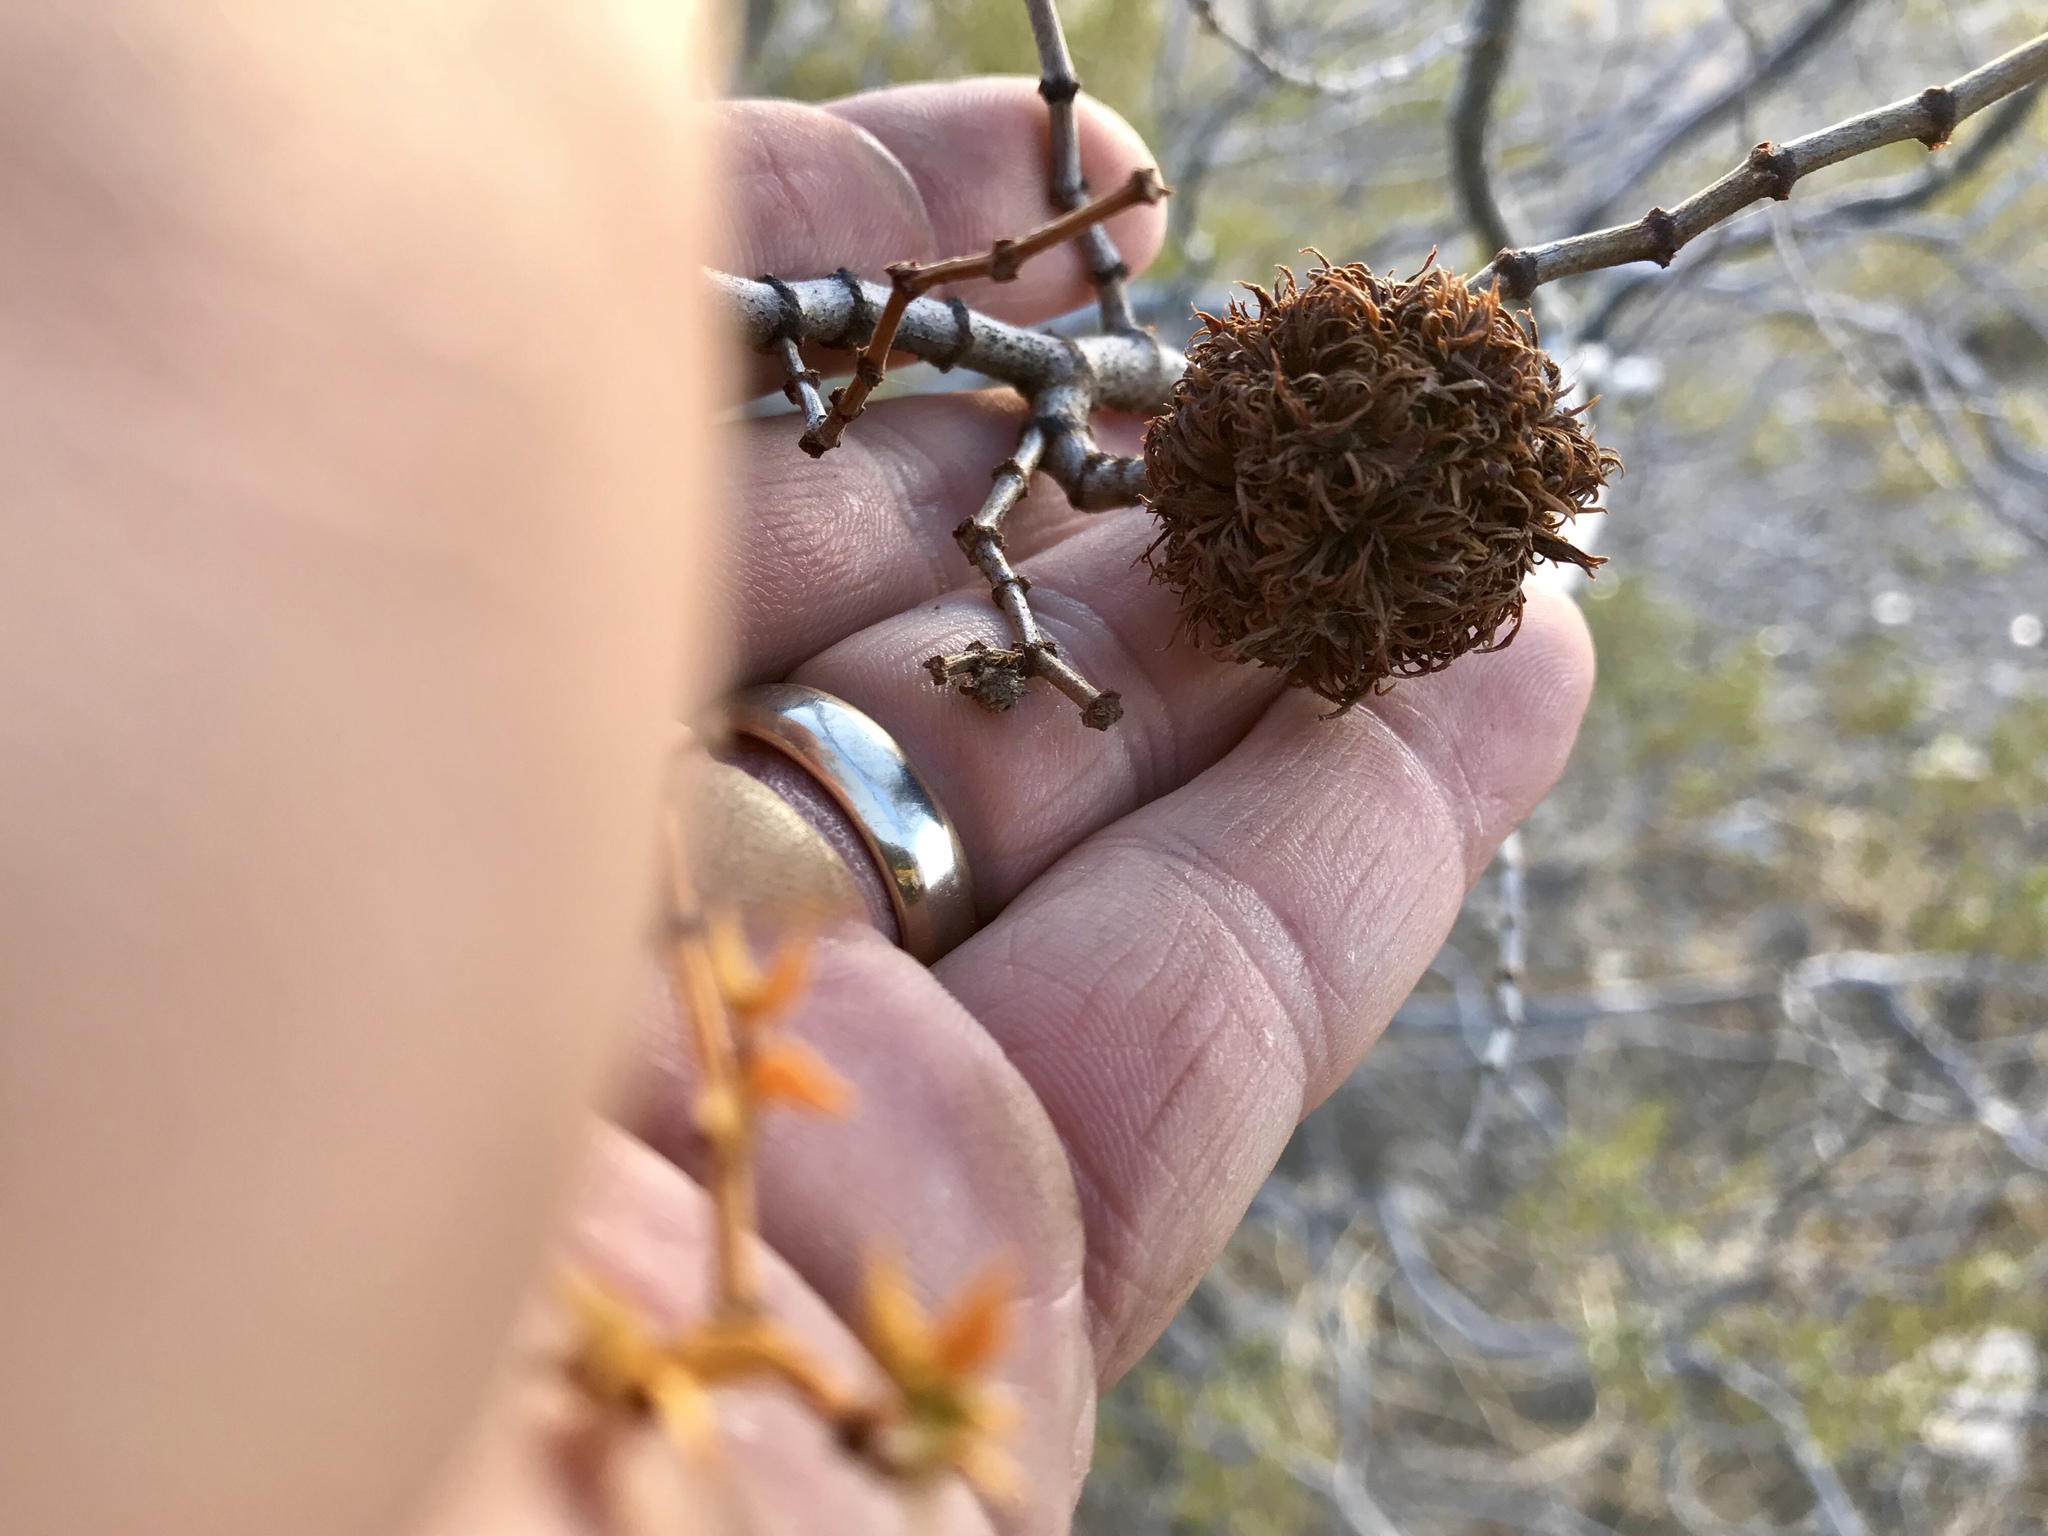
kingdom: Animalia
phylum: Arthropoda
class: Insecta
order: Diptera
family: Cecidomyiidae
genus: Asphondylia
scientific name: Asphondylia auripila
